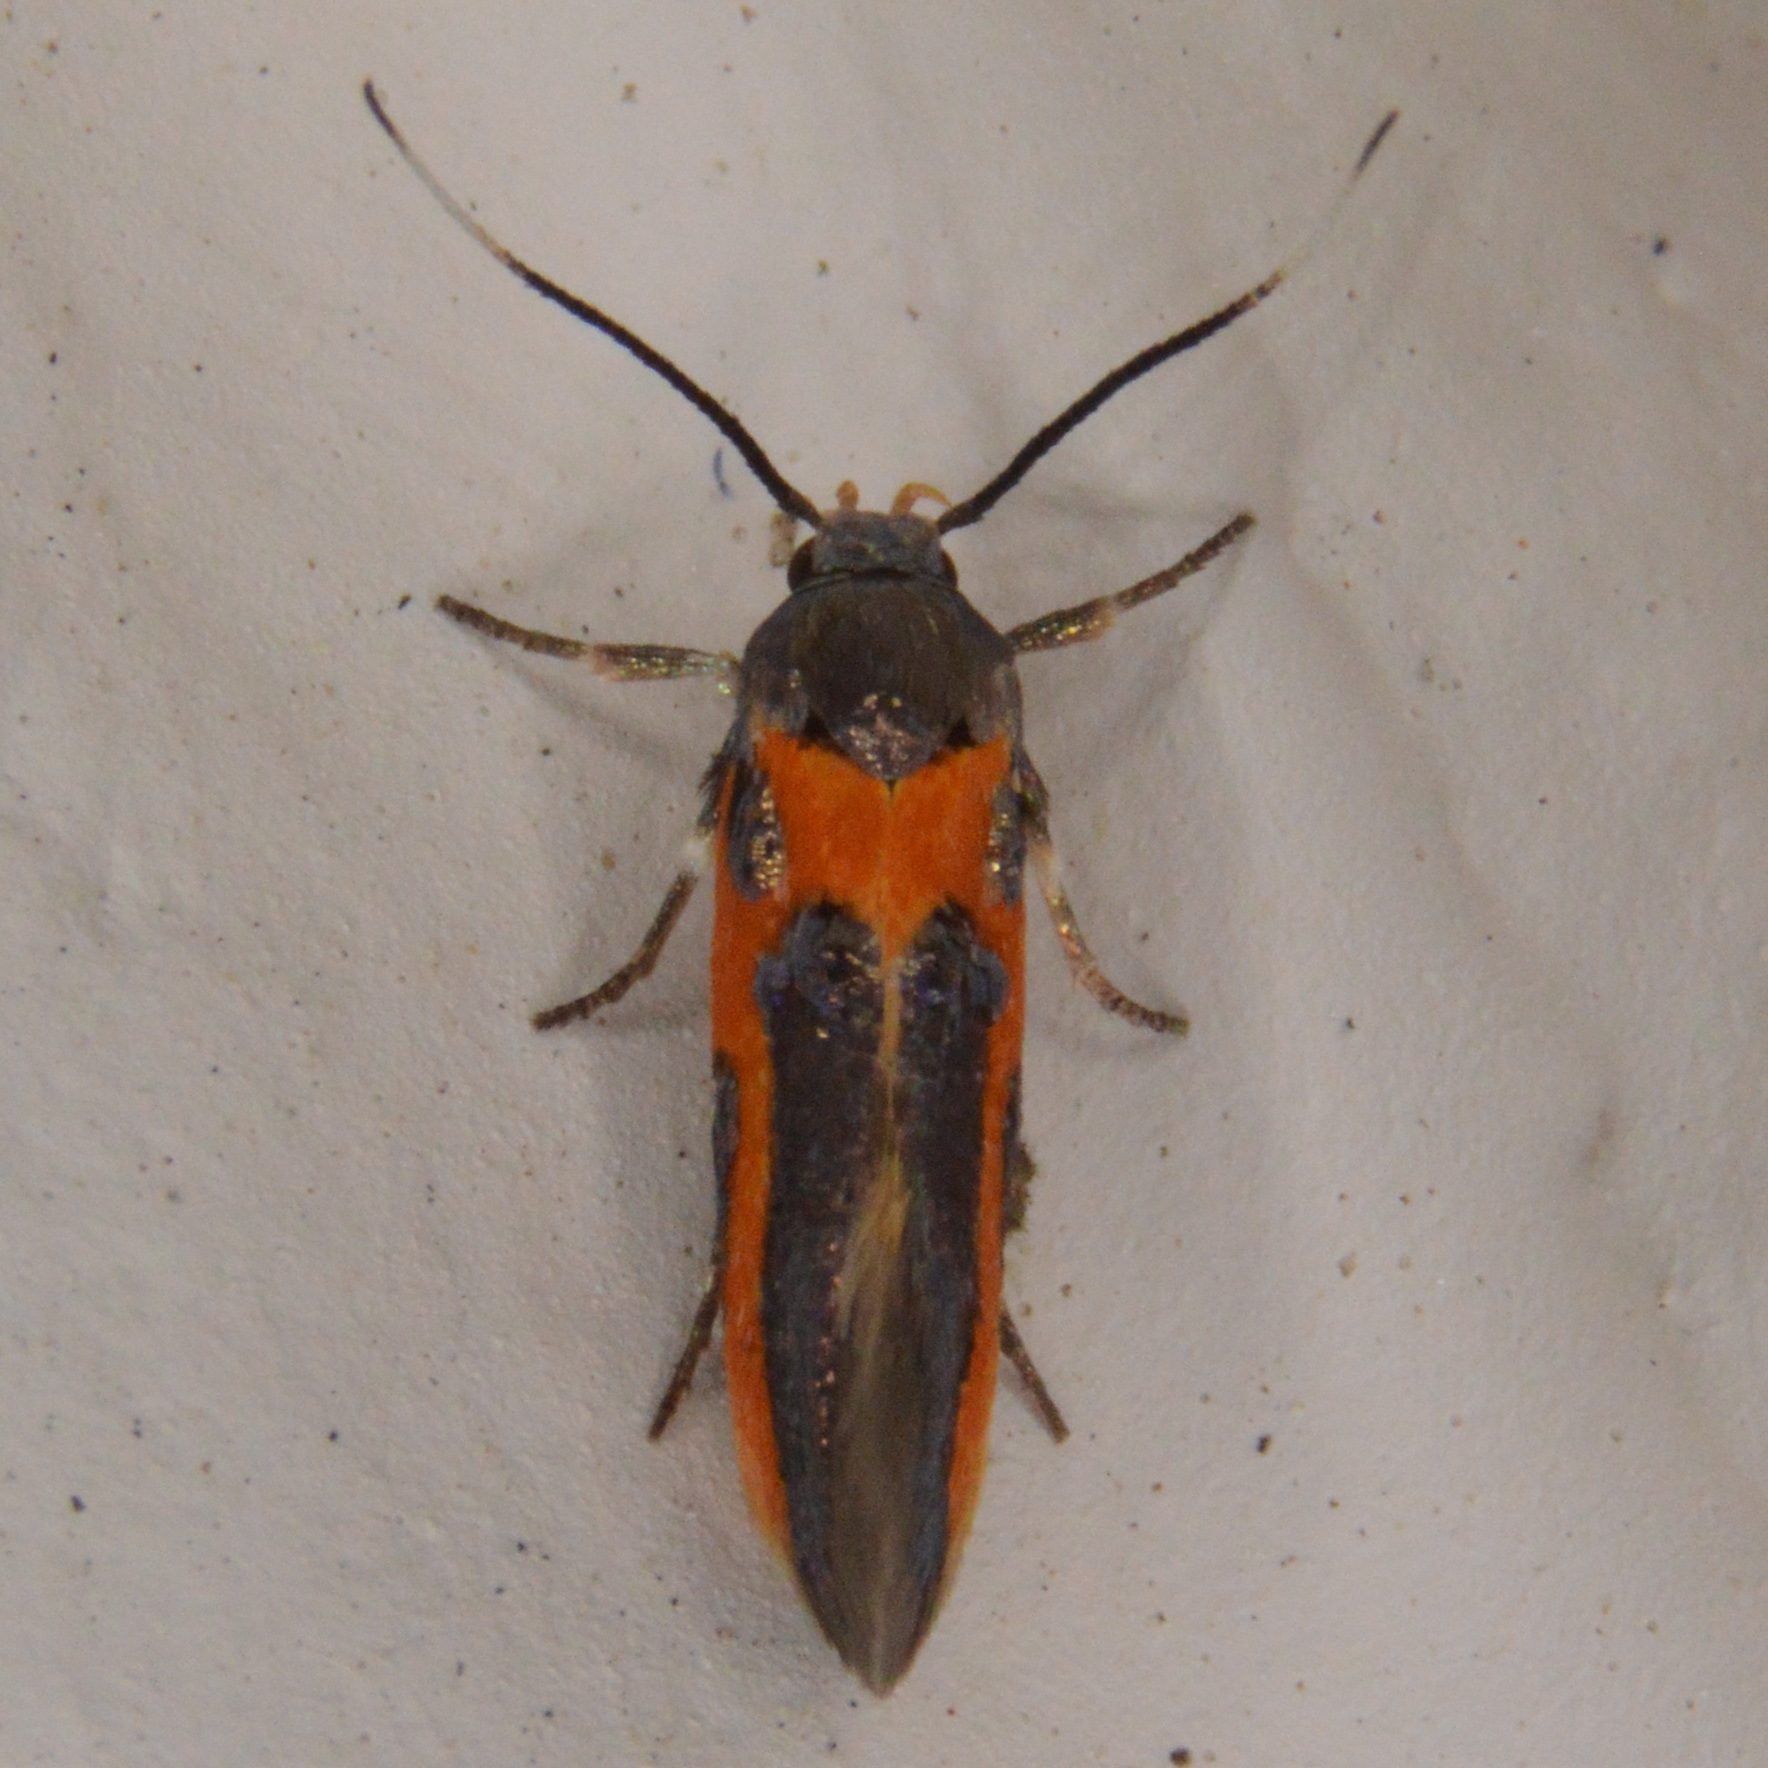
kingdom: Animalia
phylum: Arthropoda
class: Insecta
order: Lepidoptera
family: Cosmopterigidae
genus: Euclemensia
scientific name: Euclemensia bassettella
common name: Kermes scale moth
